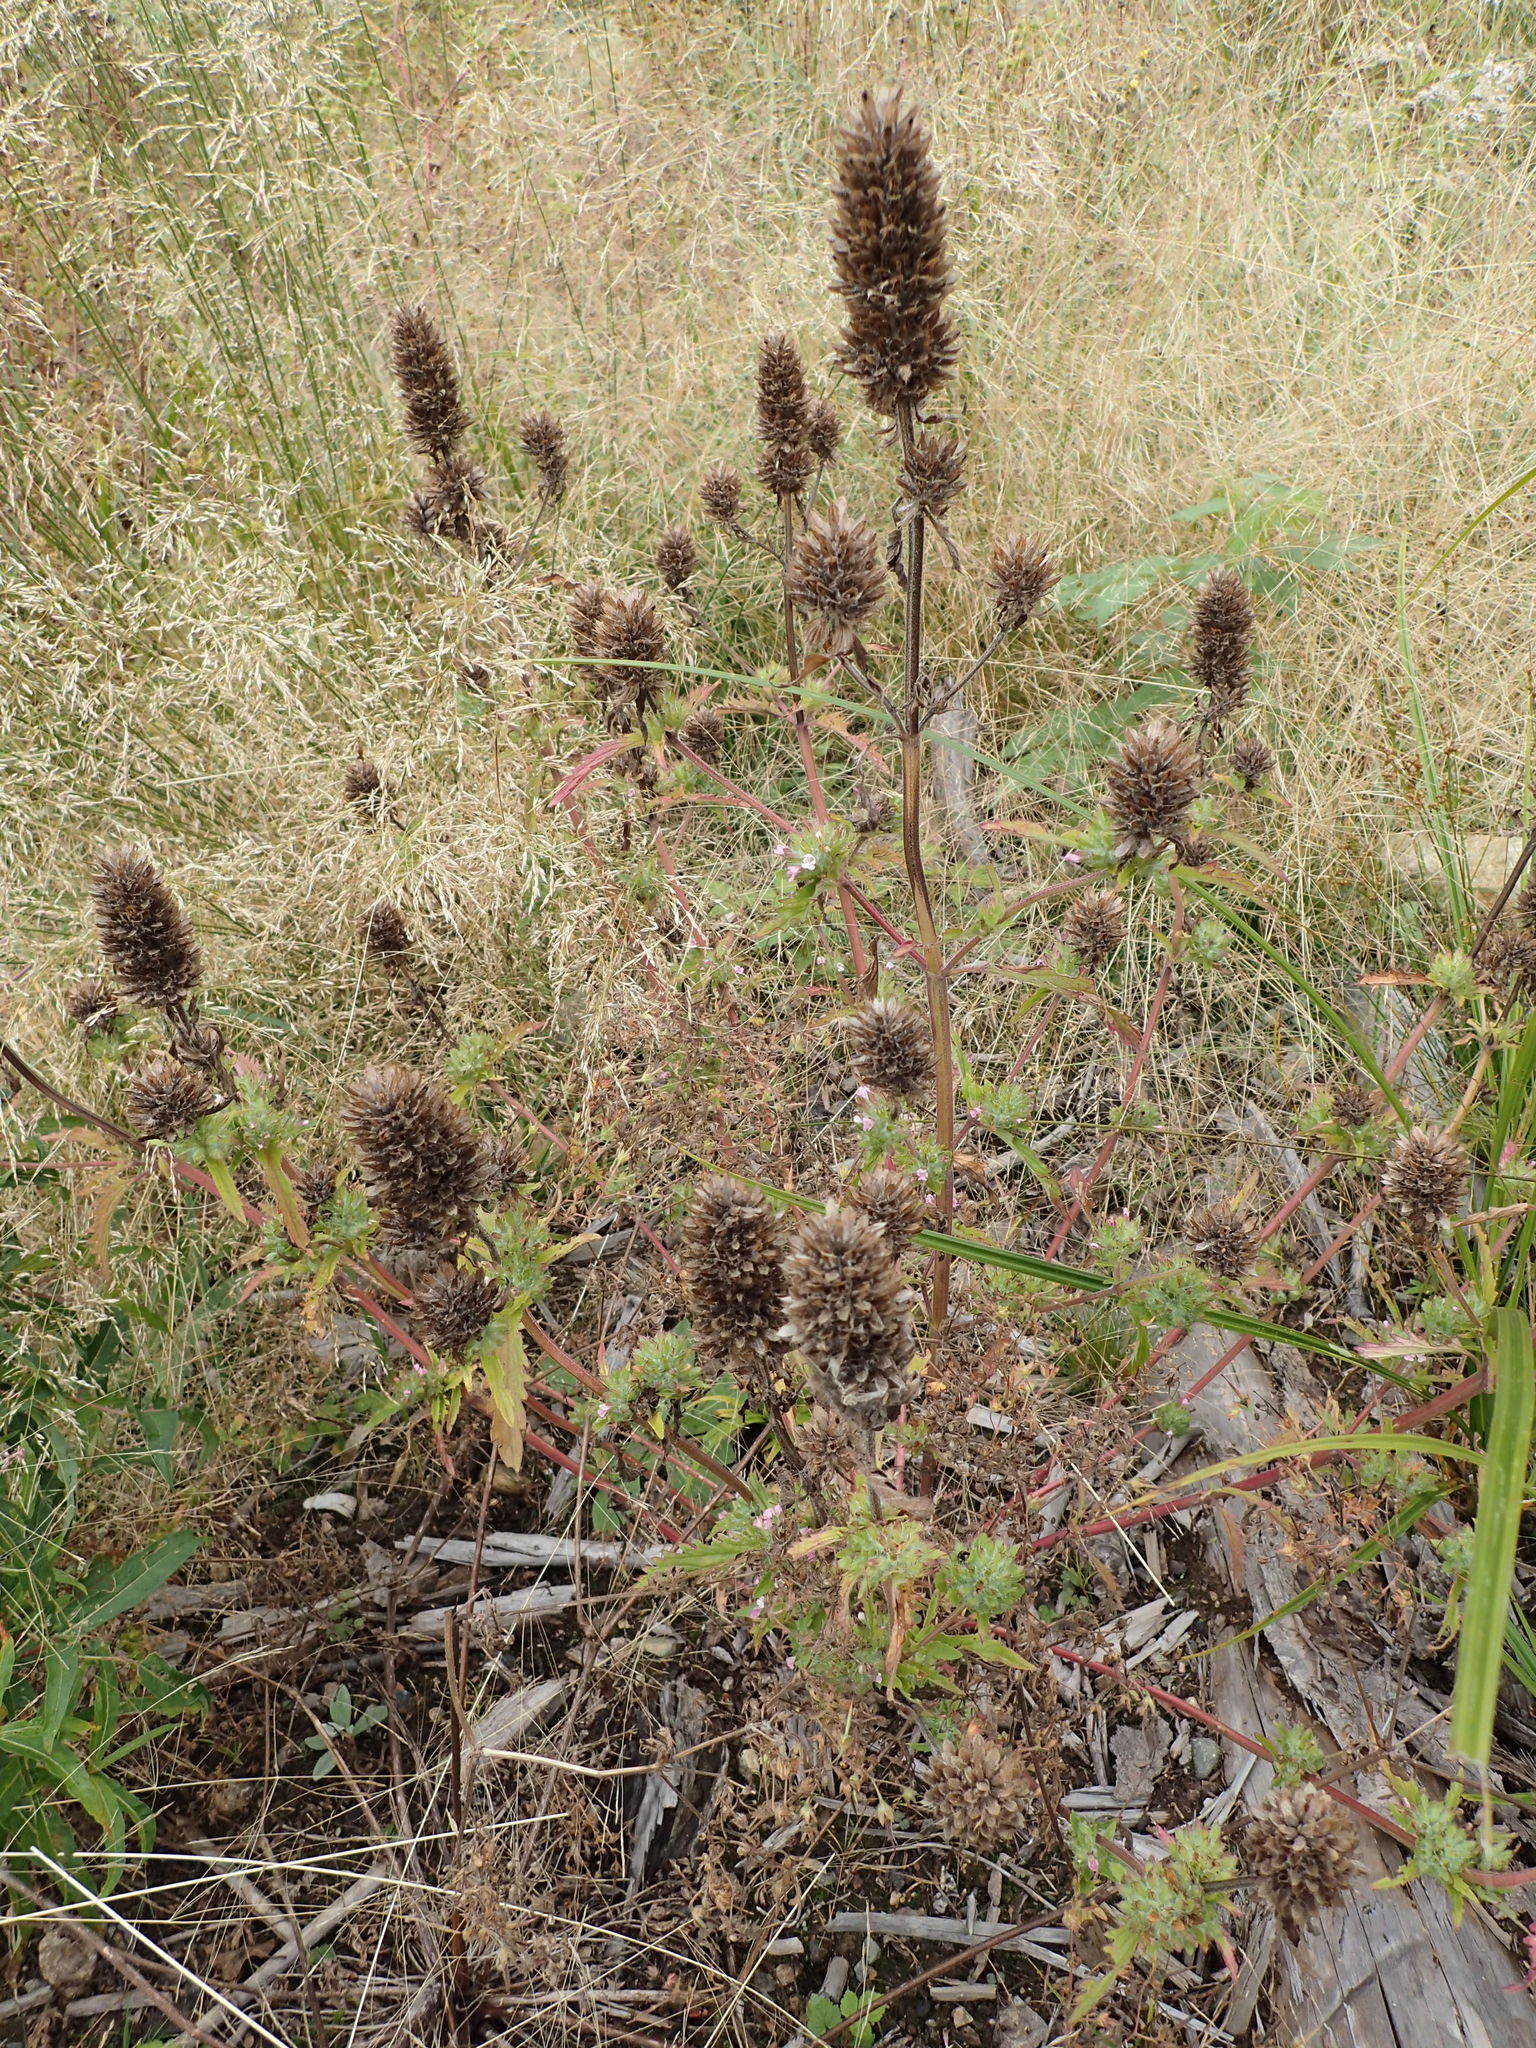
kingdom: Plantae
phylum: Tracheophyta
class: Magnoliopsida
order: Lamiales
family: Lamiaceae
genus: Dracocephalum
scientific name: Dracocephalum parviflorum
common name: American dragonhead
